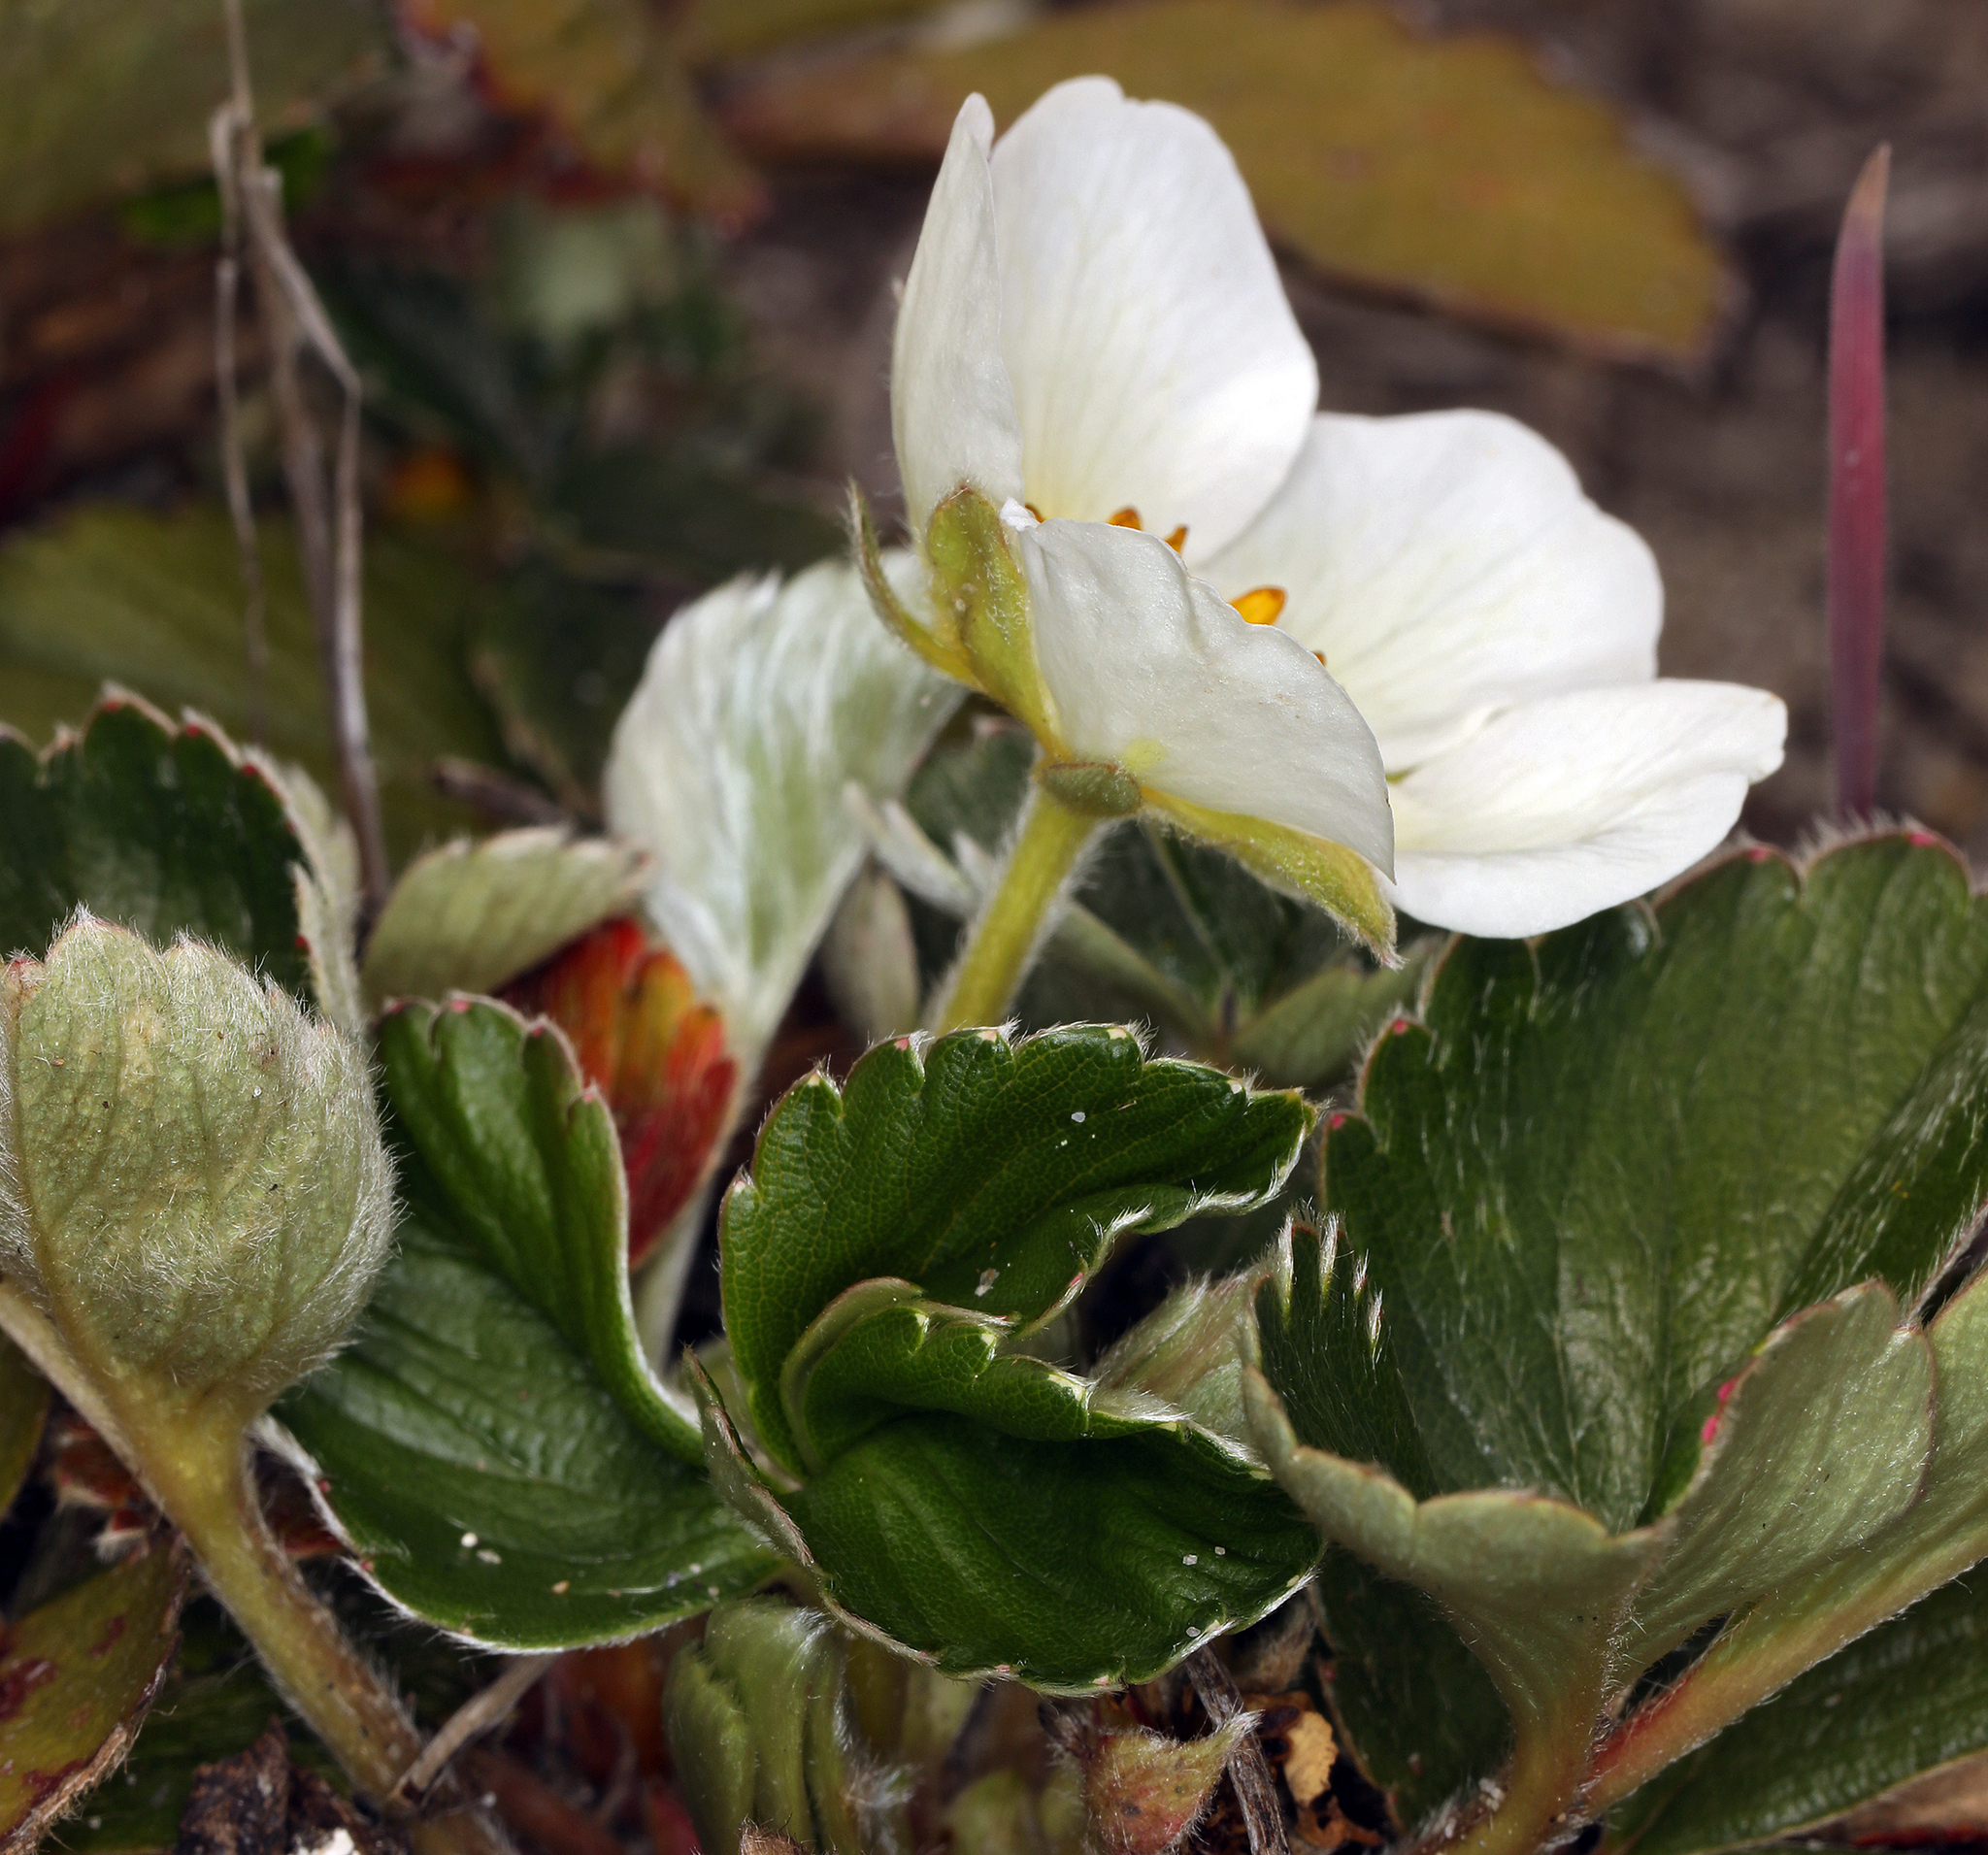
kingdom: Plantae
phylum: Tracheophyta
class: Magnoliopsida
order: Rosales
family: Rosaceae
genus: Fragaria
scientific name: Fragaria chiloensis
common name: Beach strawberry
